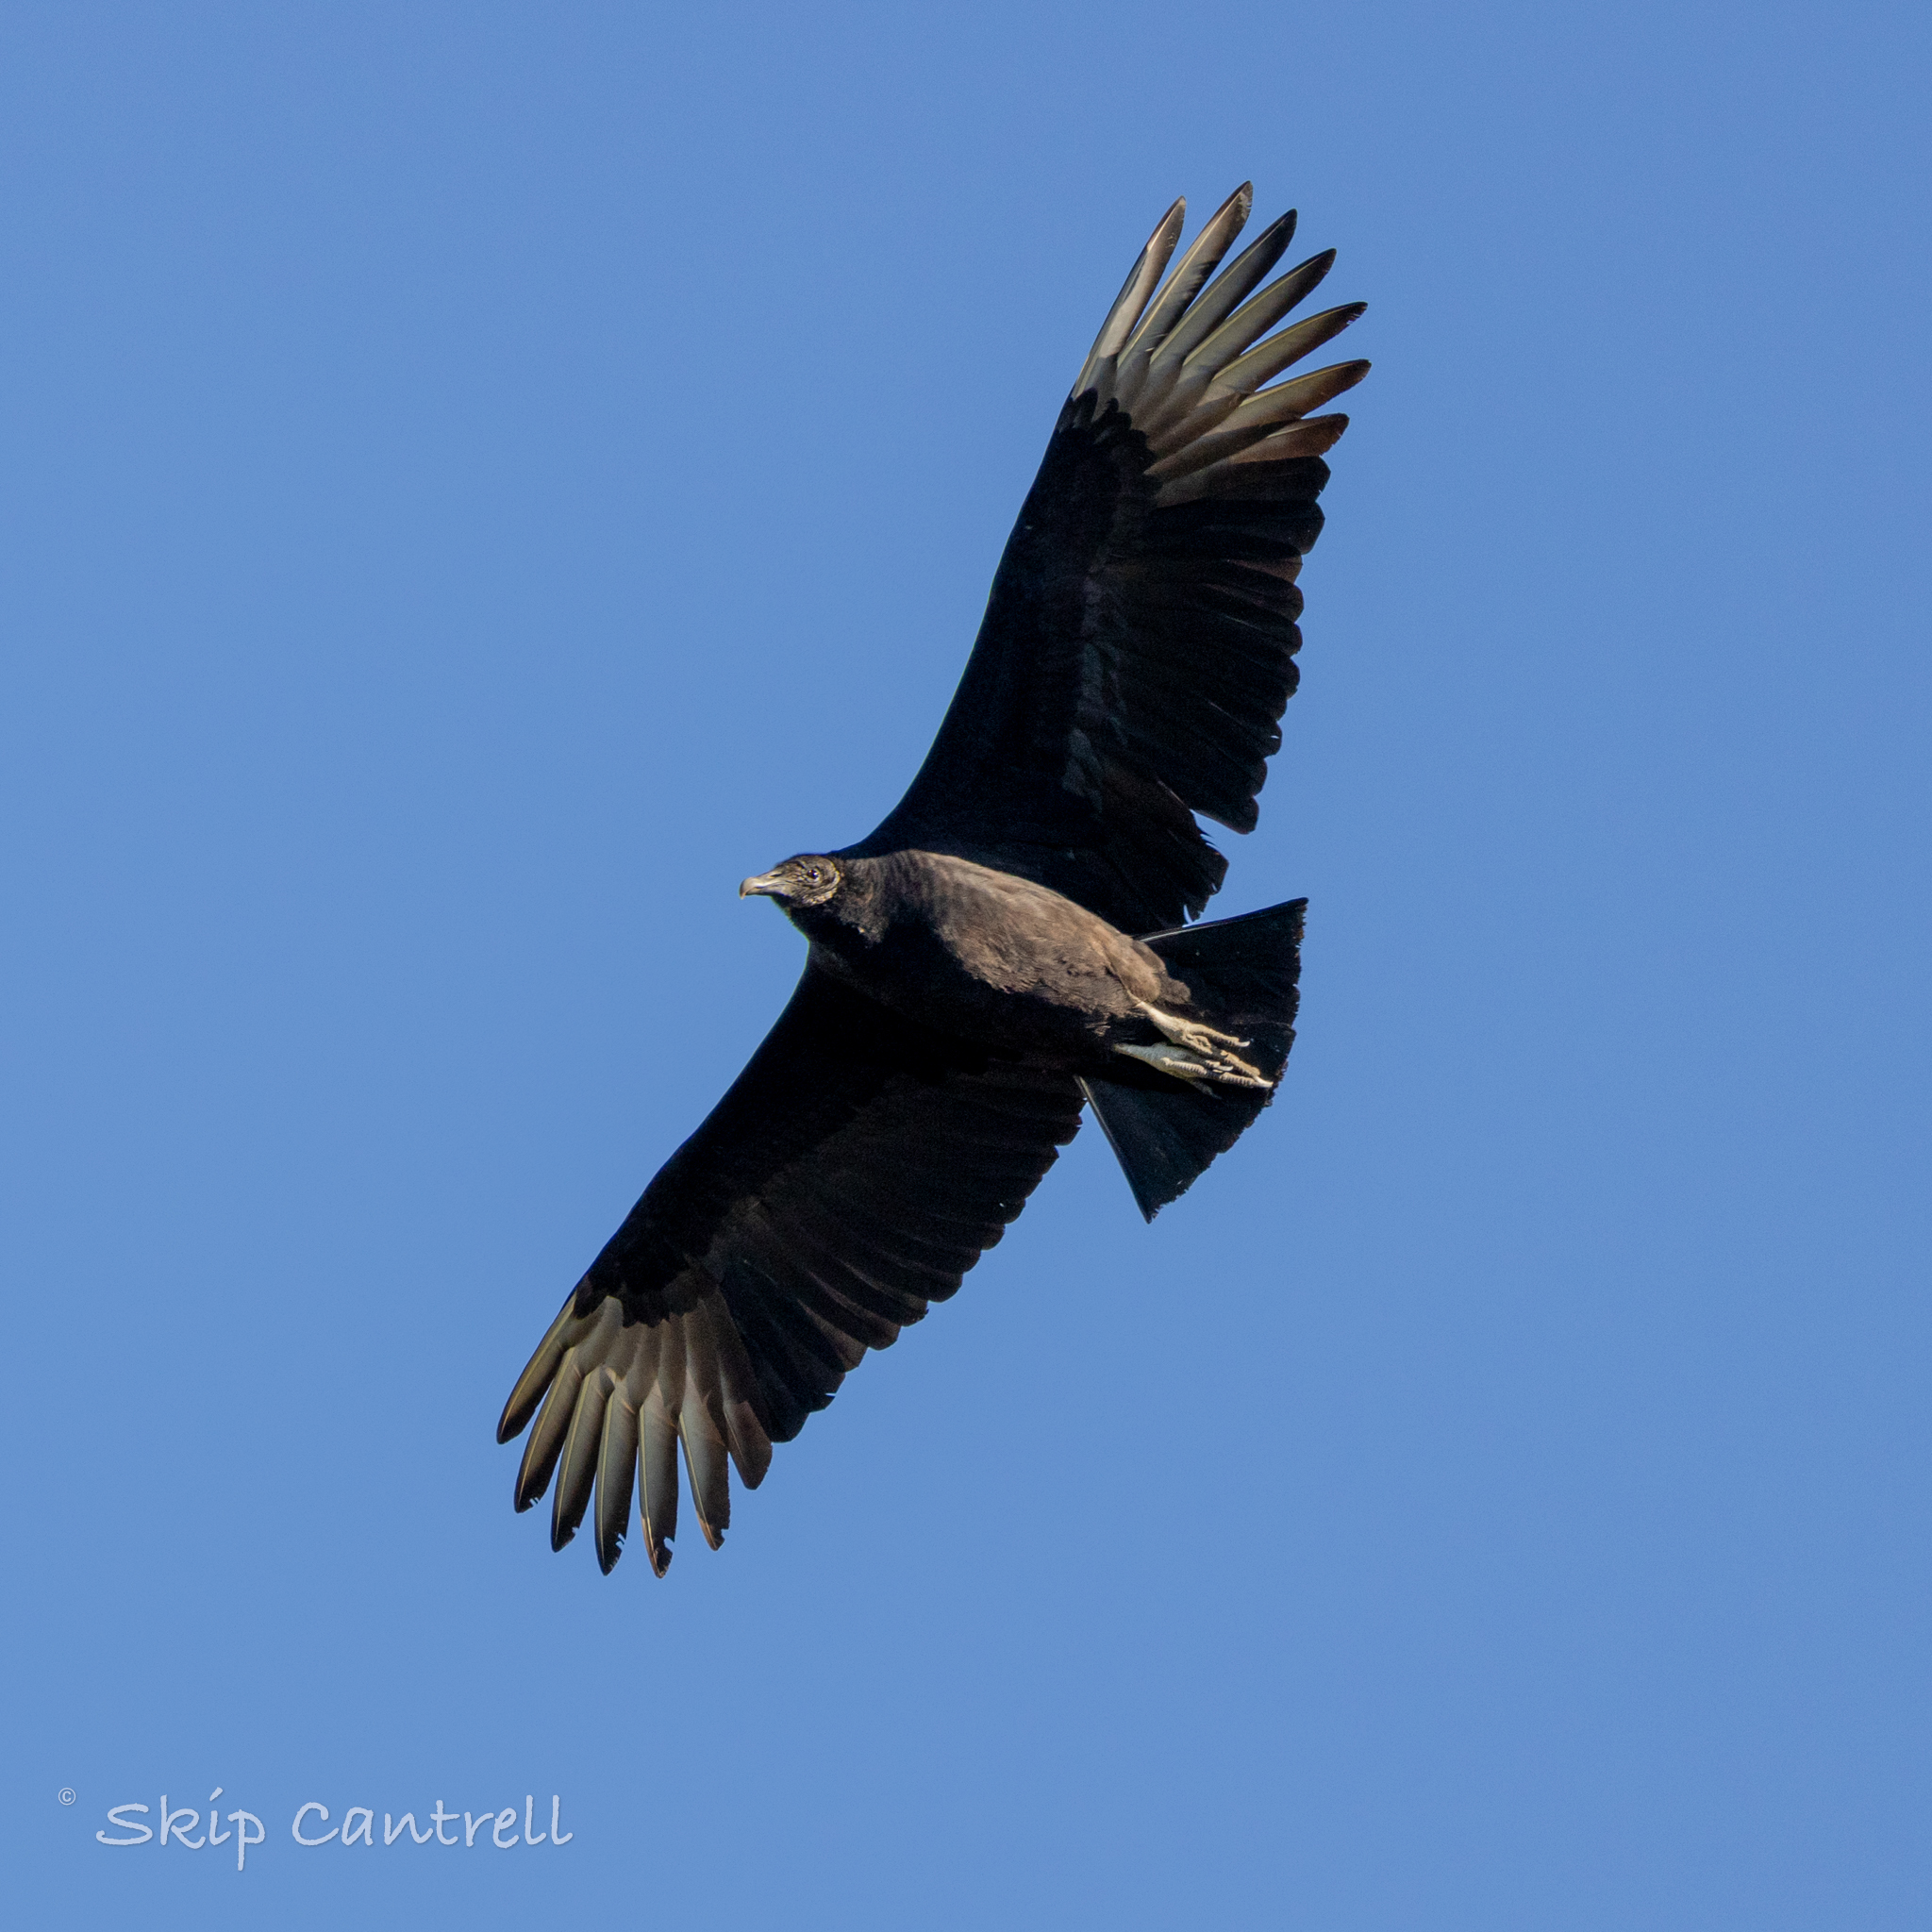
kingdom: Animalia
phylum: Chordata
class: Aves
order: Accipitriformes
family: Cathartidae
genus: Coragyps
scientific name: Coragyps atratus
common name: Black vulture
